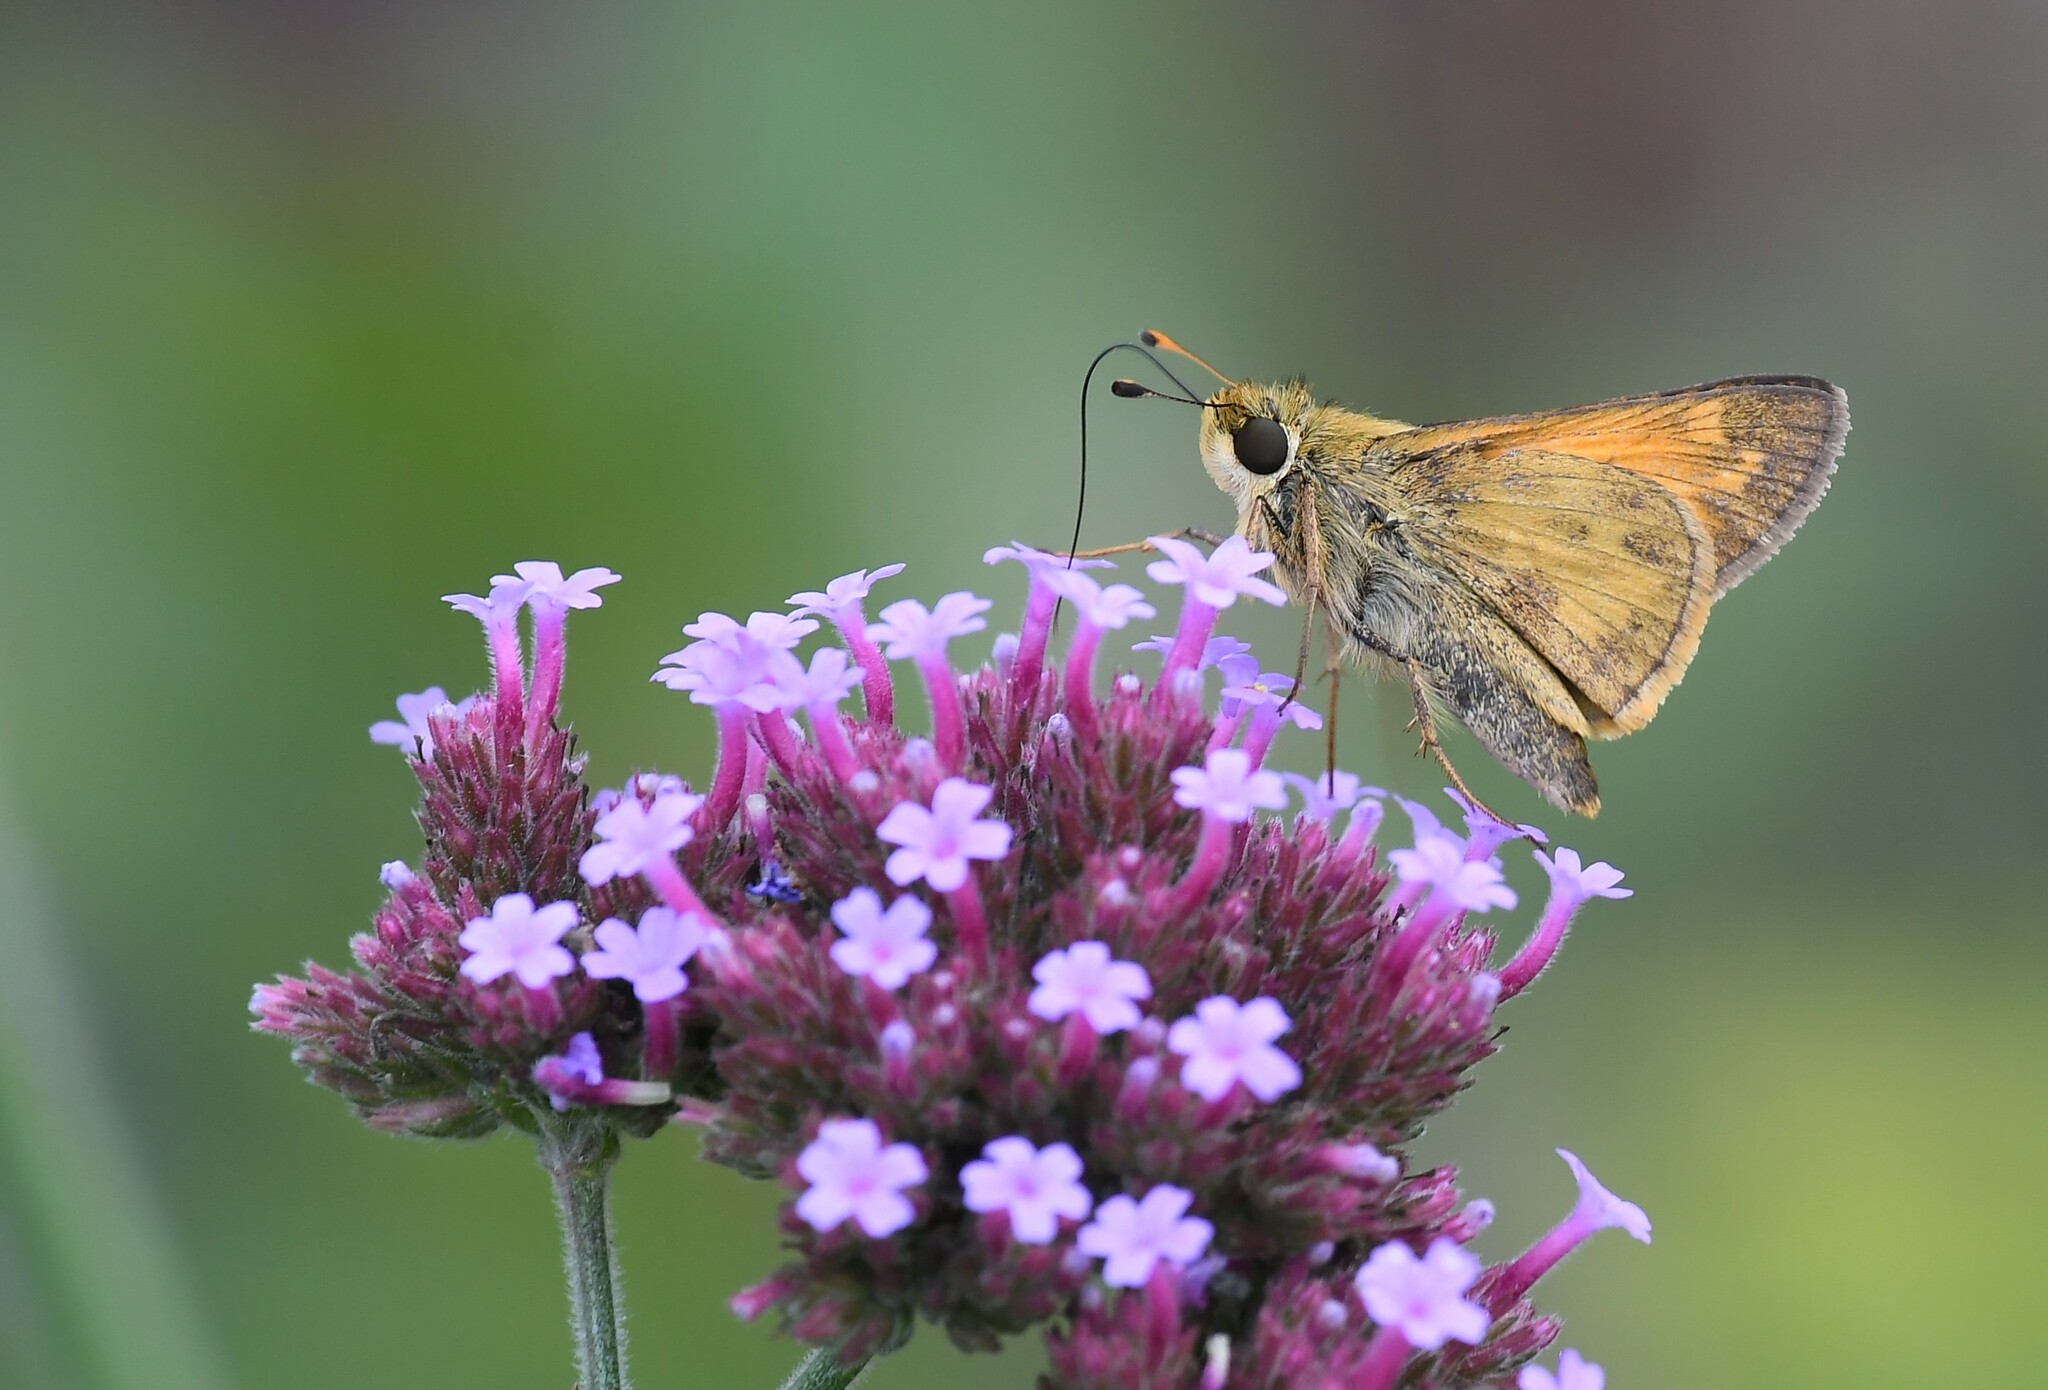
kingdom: Animalia
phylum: Arthropoda
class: Insecta
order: Lepidoptera
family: Hesperiidae
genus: Atalopedes
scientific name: Atalopedes
